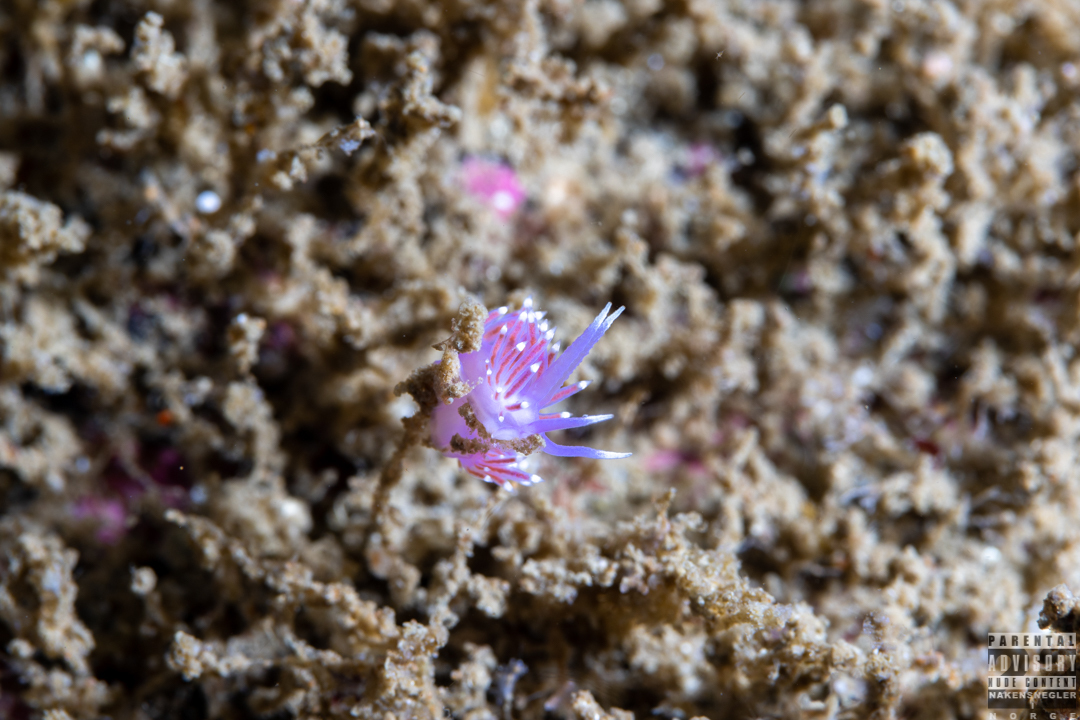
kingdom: Animalia
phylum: Mollusca
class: Gastropoda
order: Nudibranchia
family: Flabellinidae
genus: Edmundsella
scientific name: Edmundsella pedata
